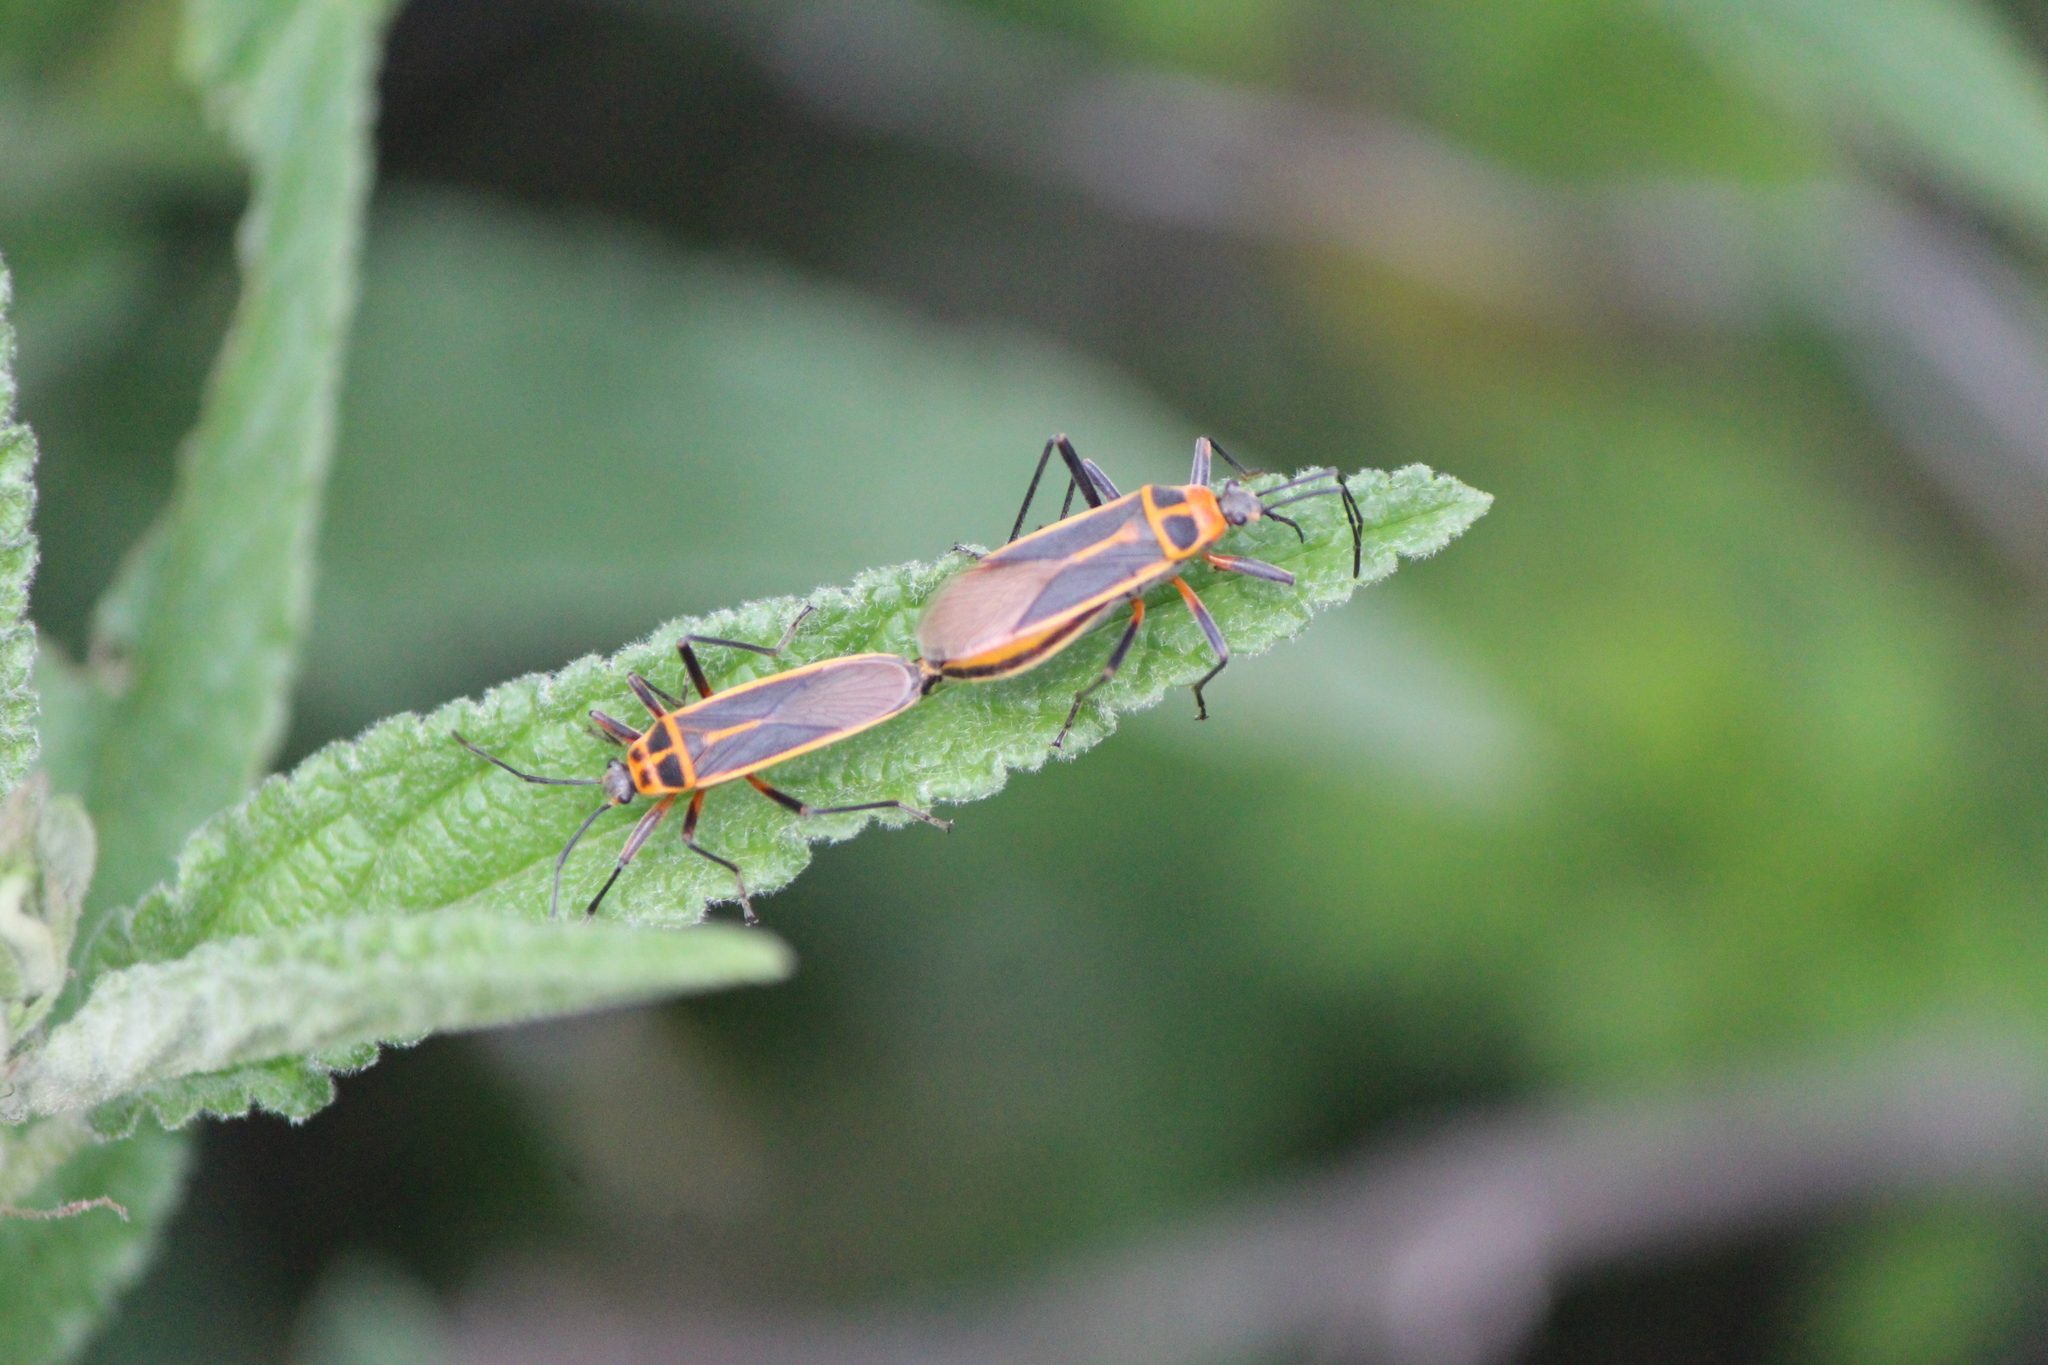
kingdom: Animalia
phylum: Arthropoda
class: Insecta
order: Hemiptera
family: Largidae
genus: Stenomacra
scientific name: Stenomacra marginella
